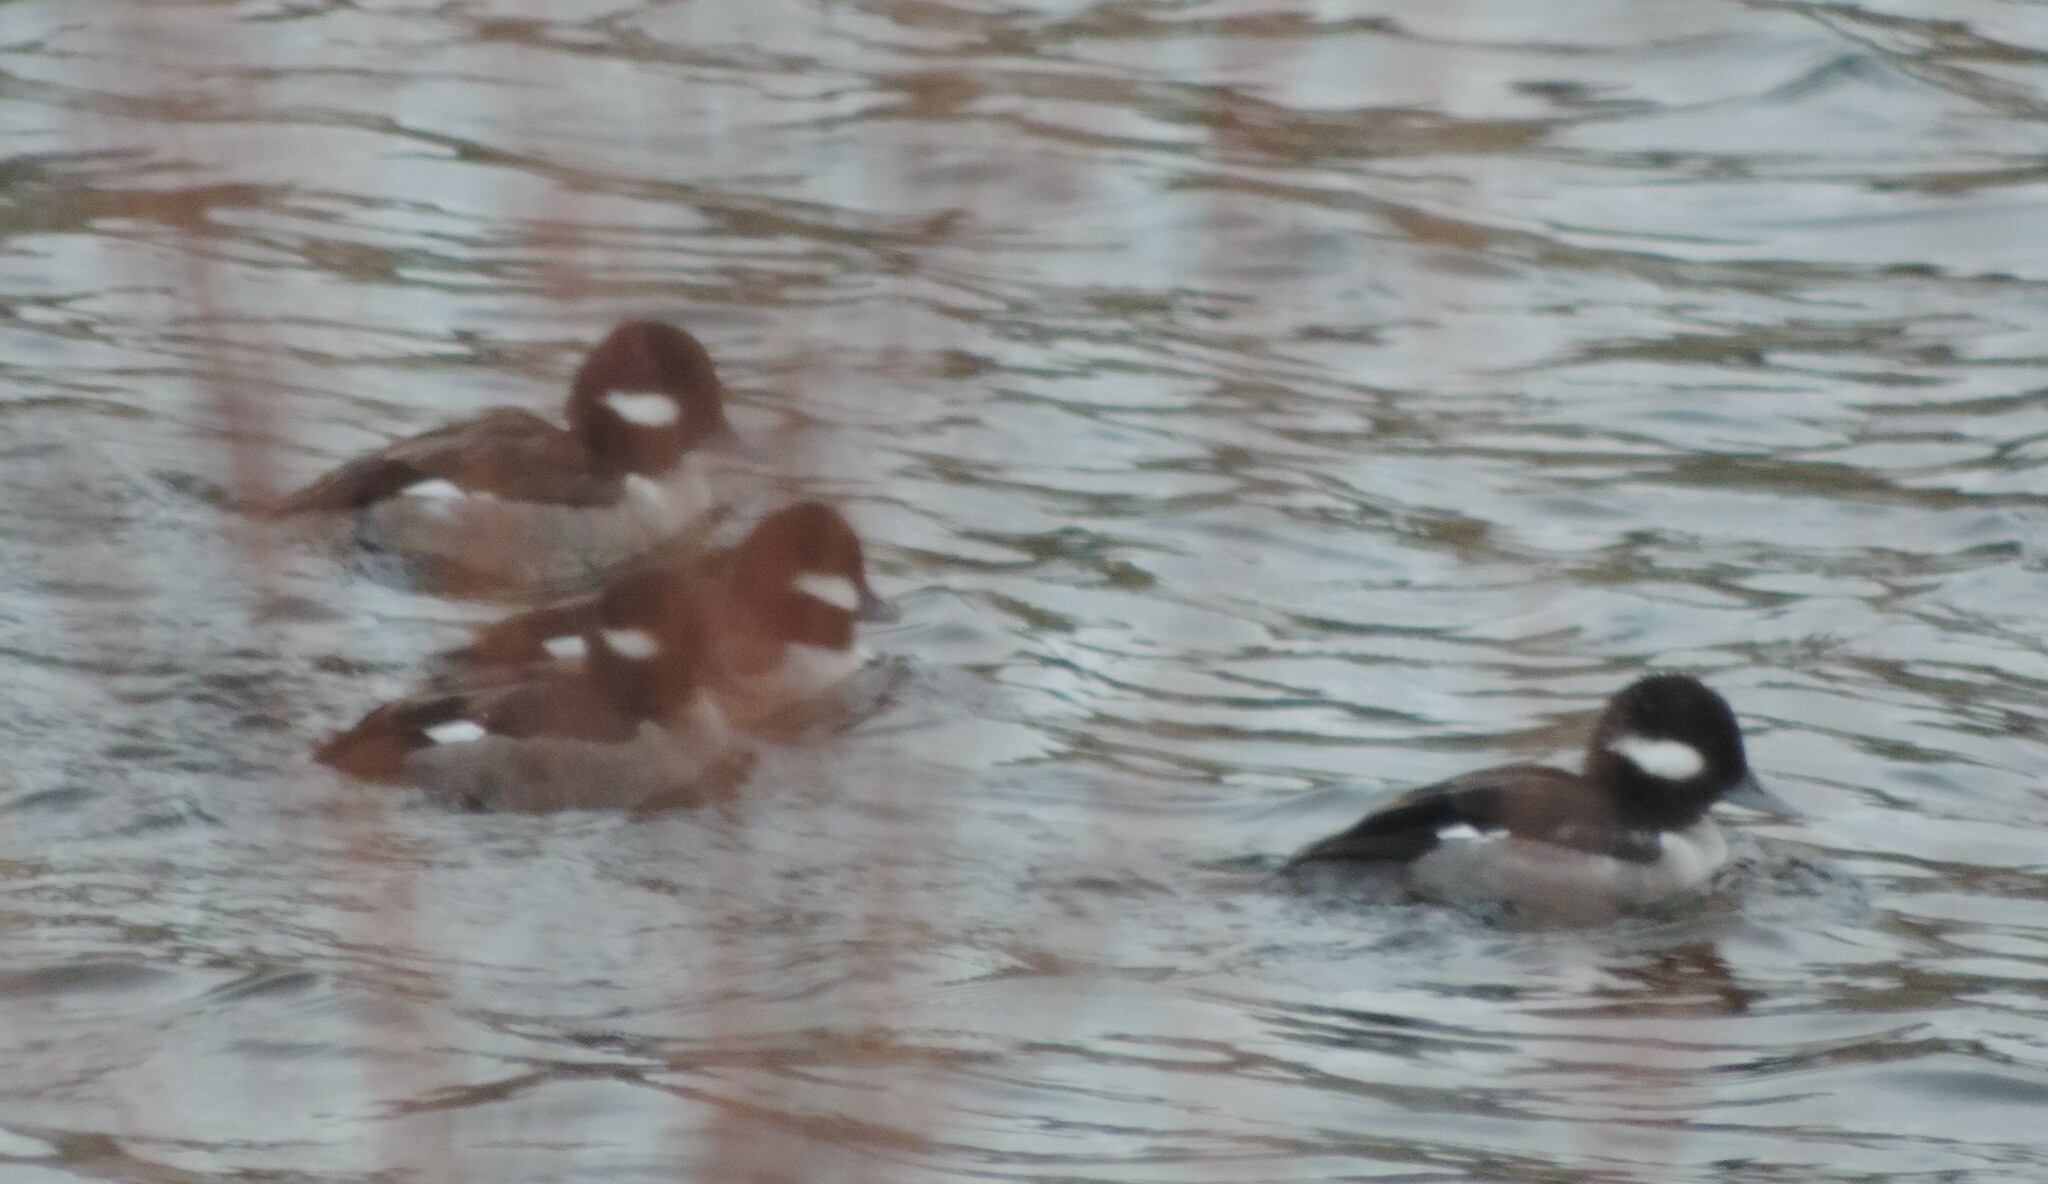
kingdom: Animalia
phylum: Chordata
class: Aves
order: Anseriformes
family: Anatidae
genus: Bucephala
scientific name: Bucephala albeola
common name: Bufflehead
